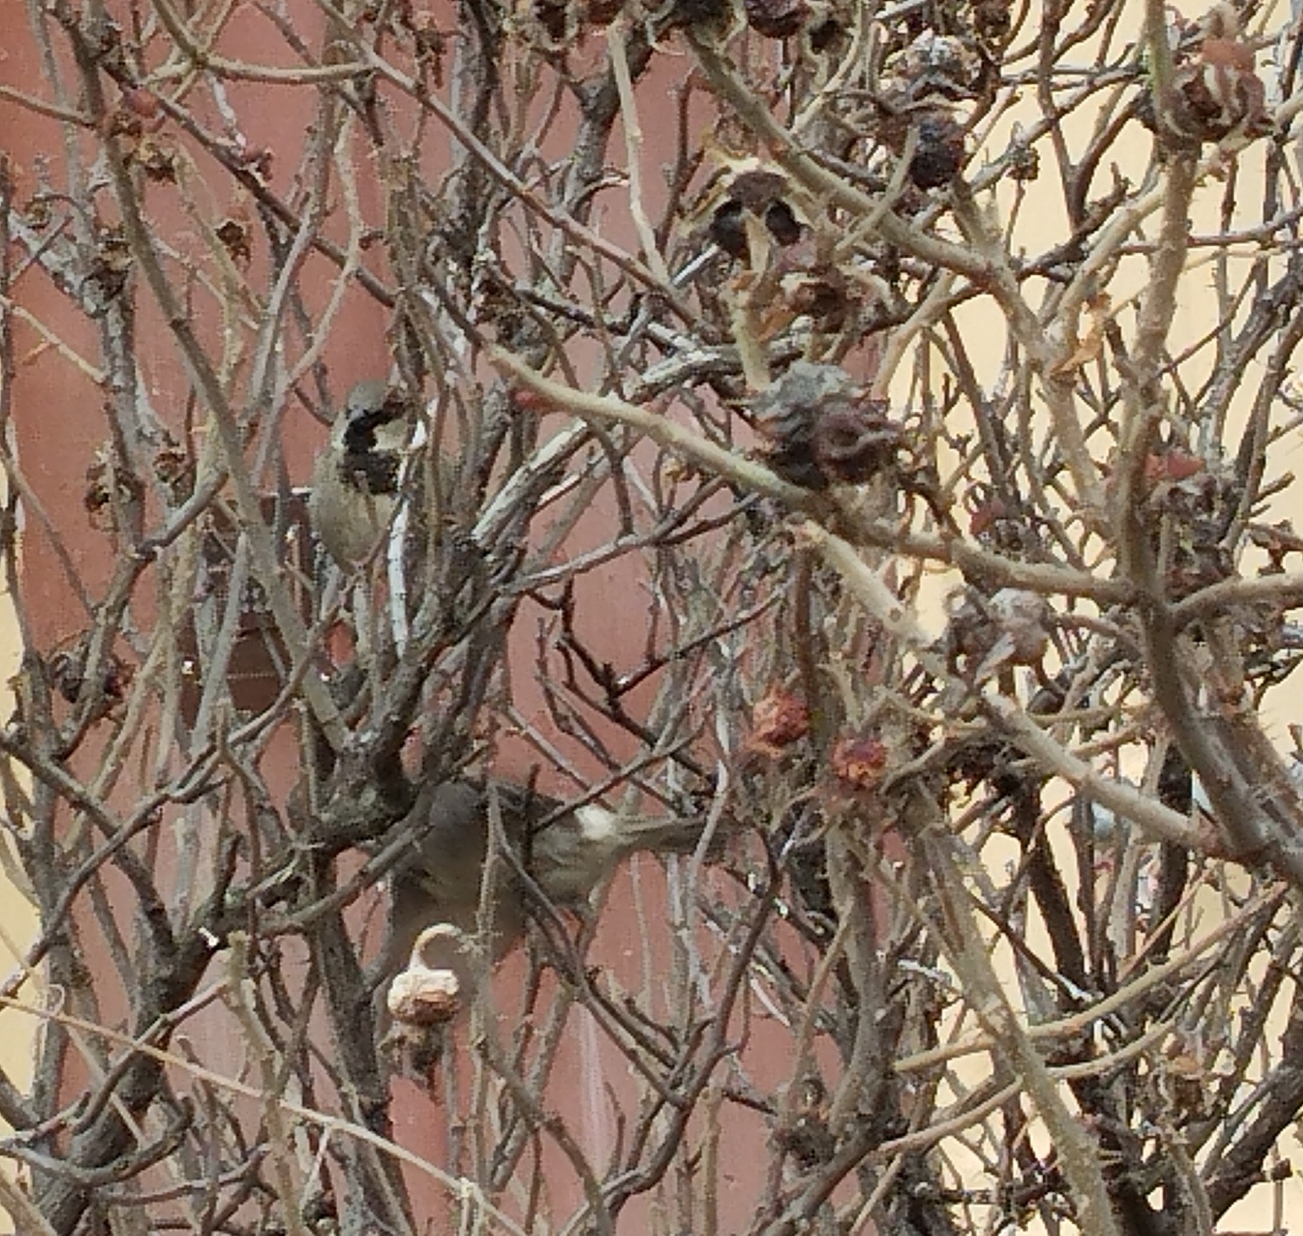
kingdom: Animalia
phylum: Chordata
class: Aves
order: Passeriformes
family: Passeridae
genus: Passer
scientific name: Passer domesticus
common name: House sparrow
